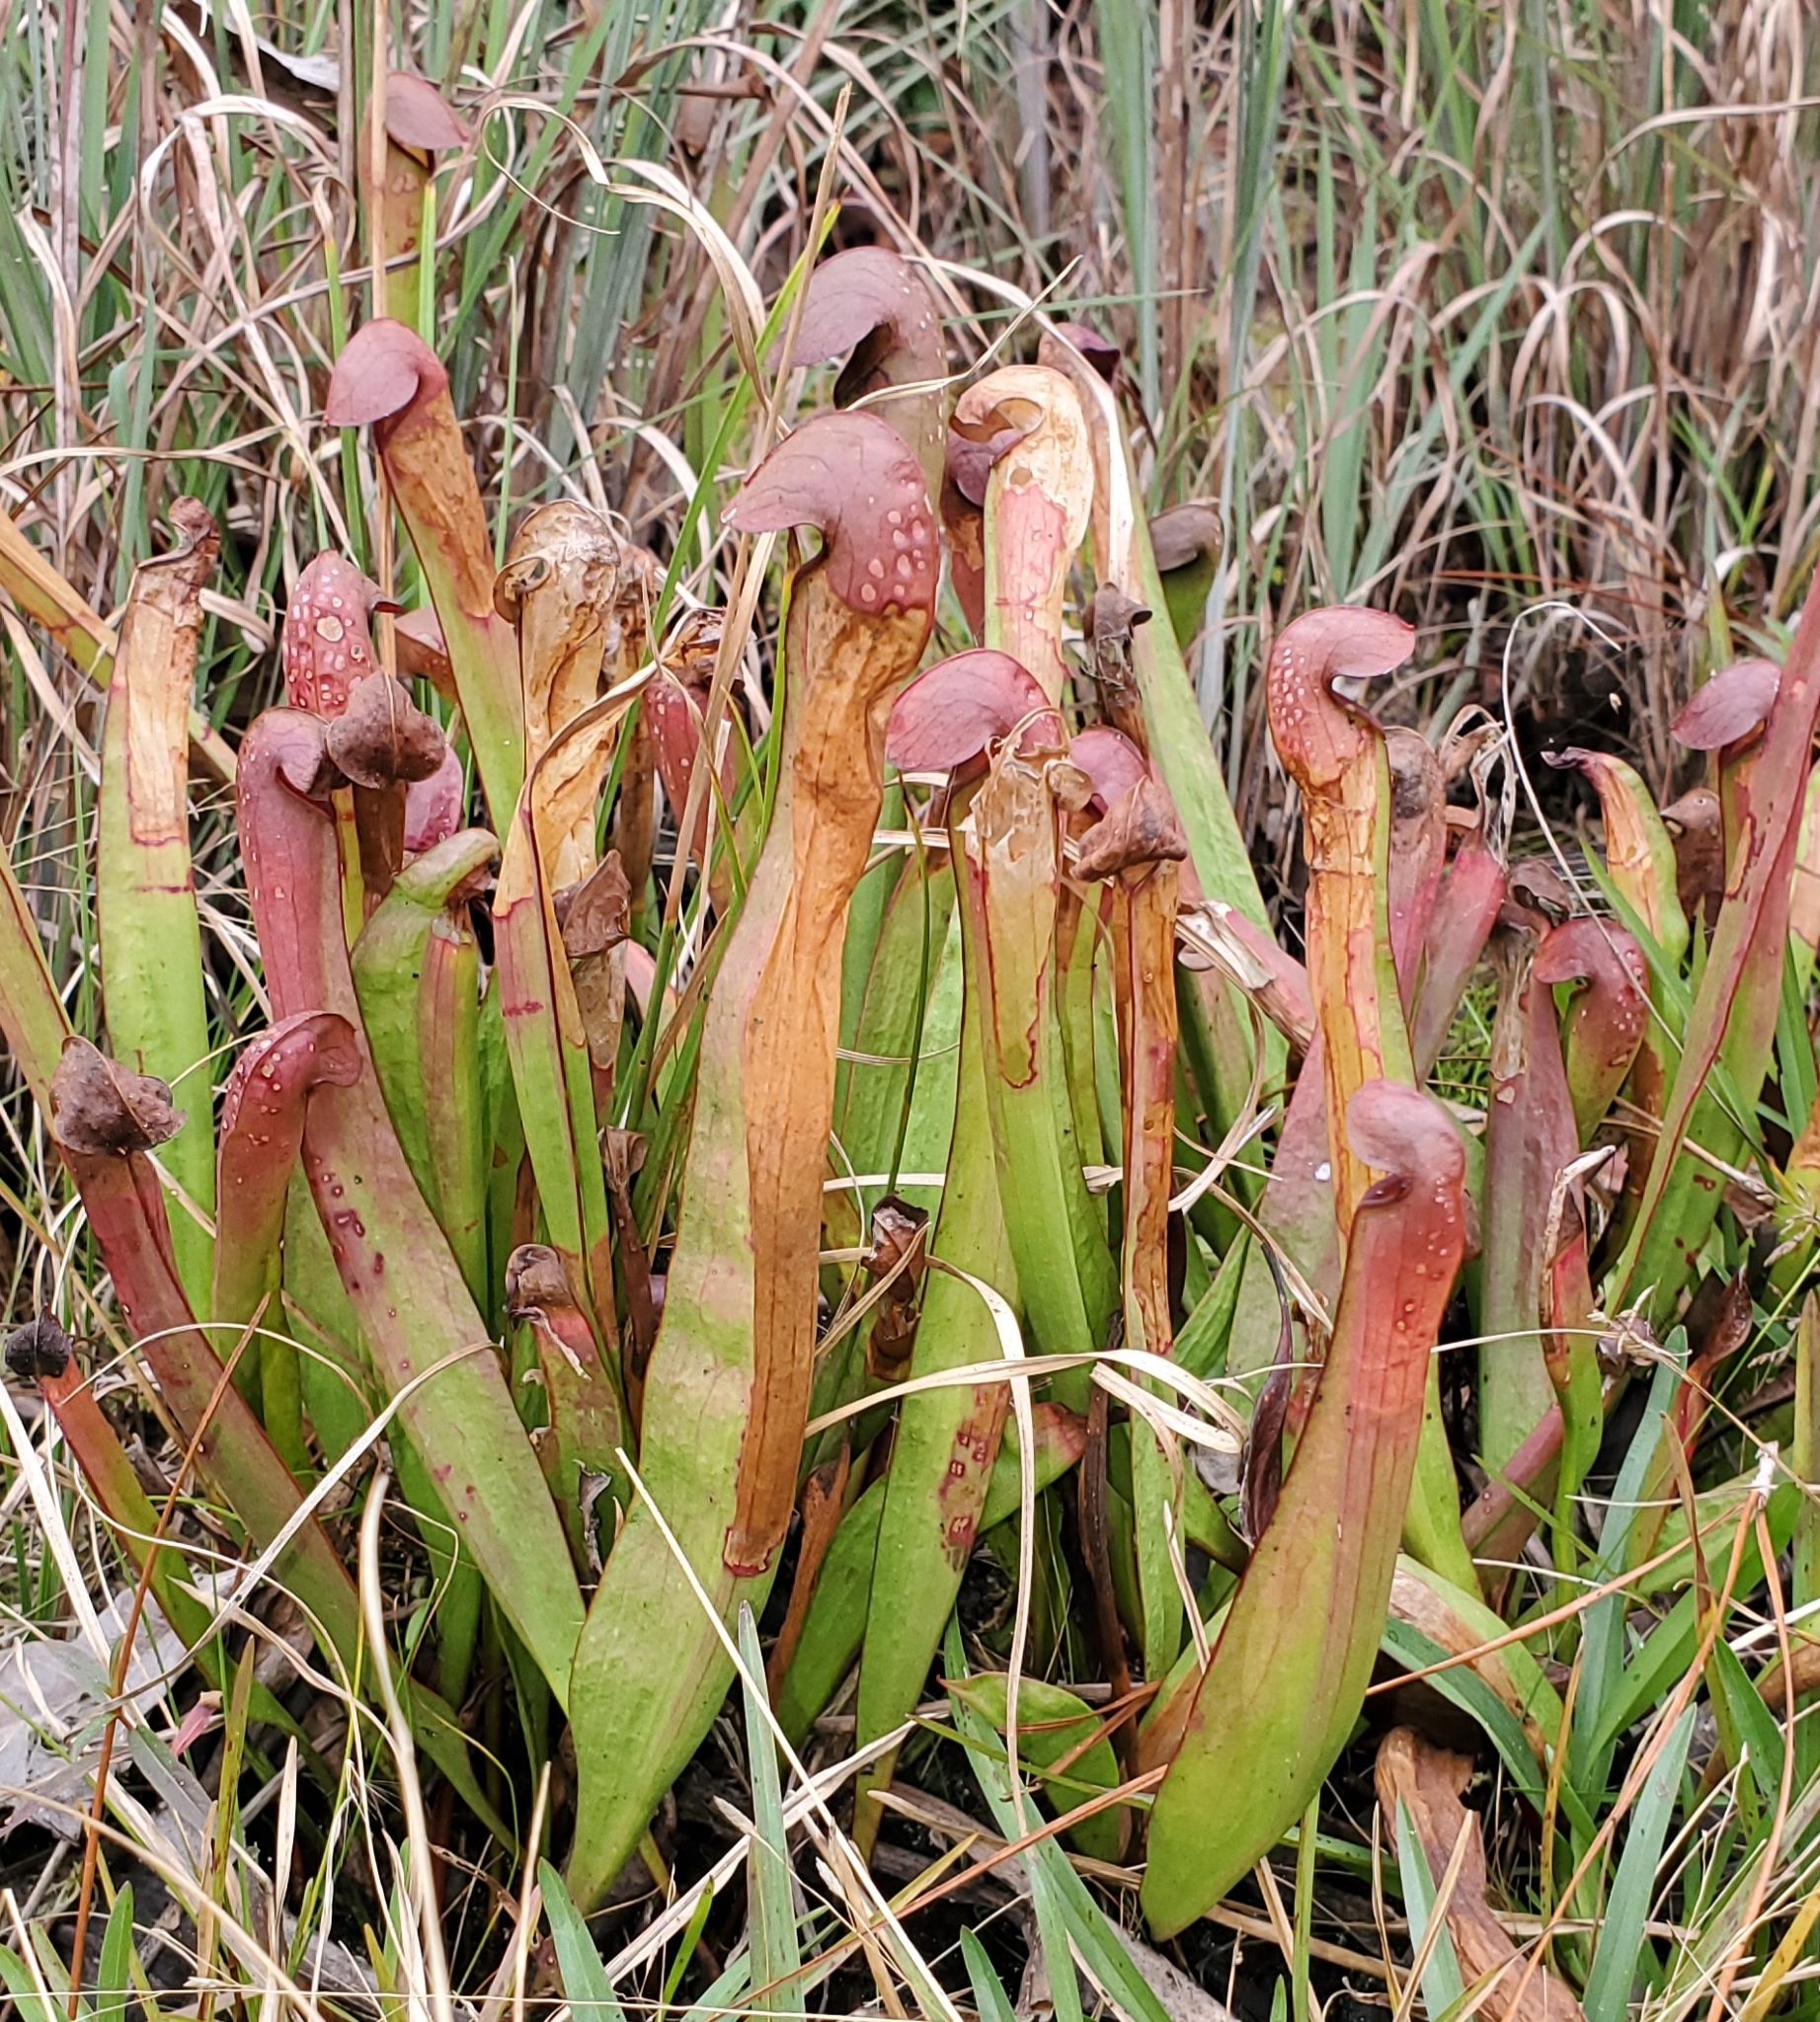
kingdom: Plantae
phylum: Tracheophyta
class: Magnoliopsida
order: Ericales
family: Sarraceniaceae
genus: Sarracenia
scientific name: Sarracenia minor
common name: Rainhat-trumpet
